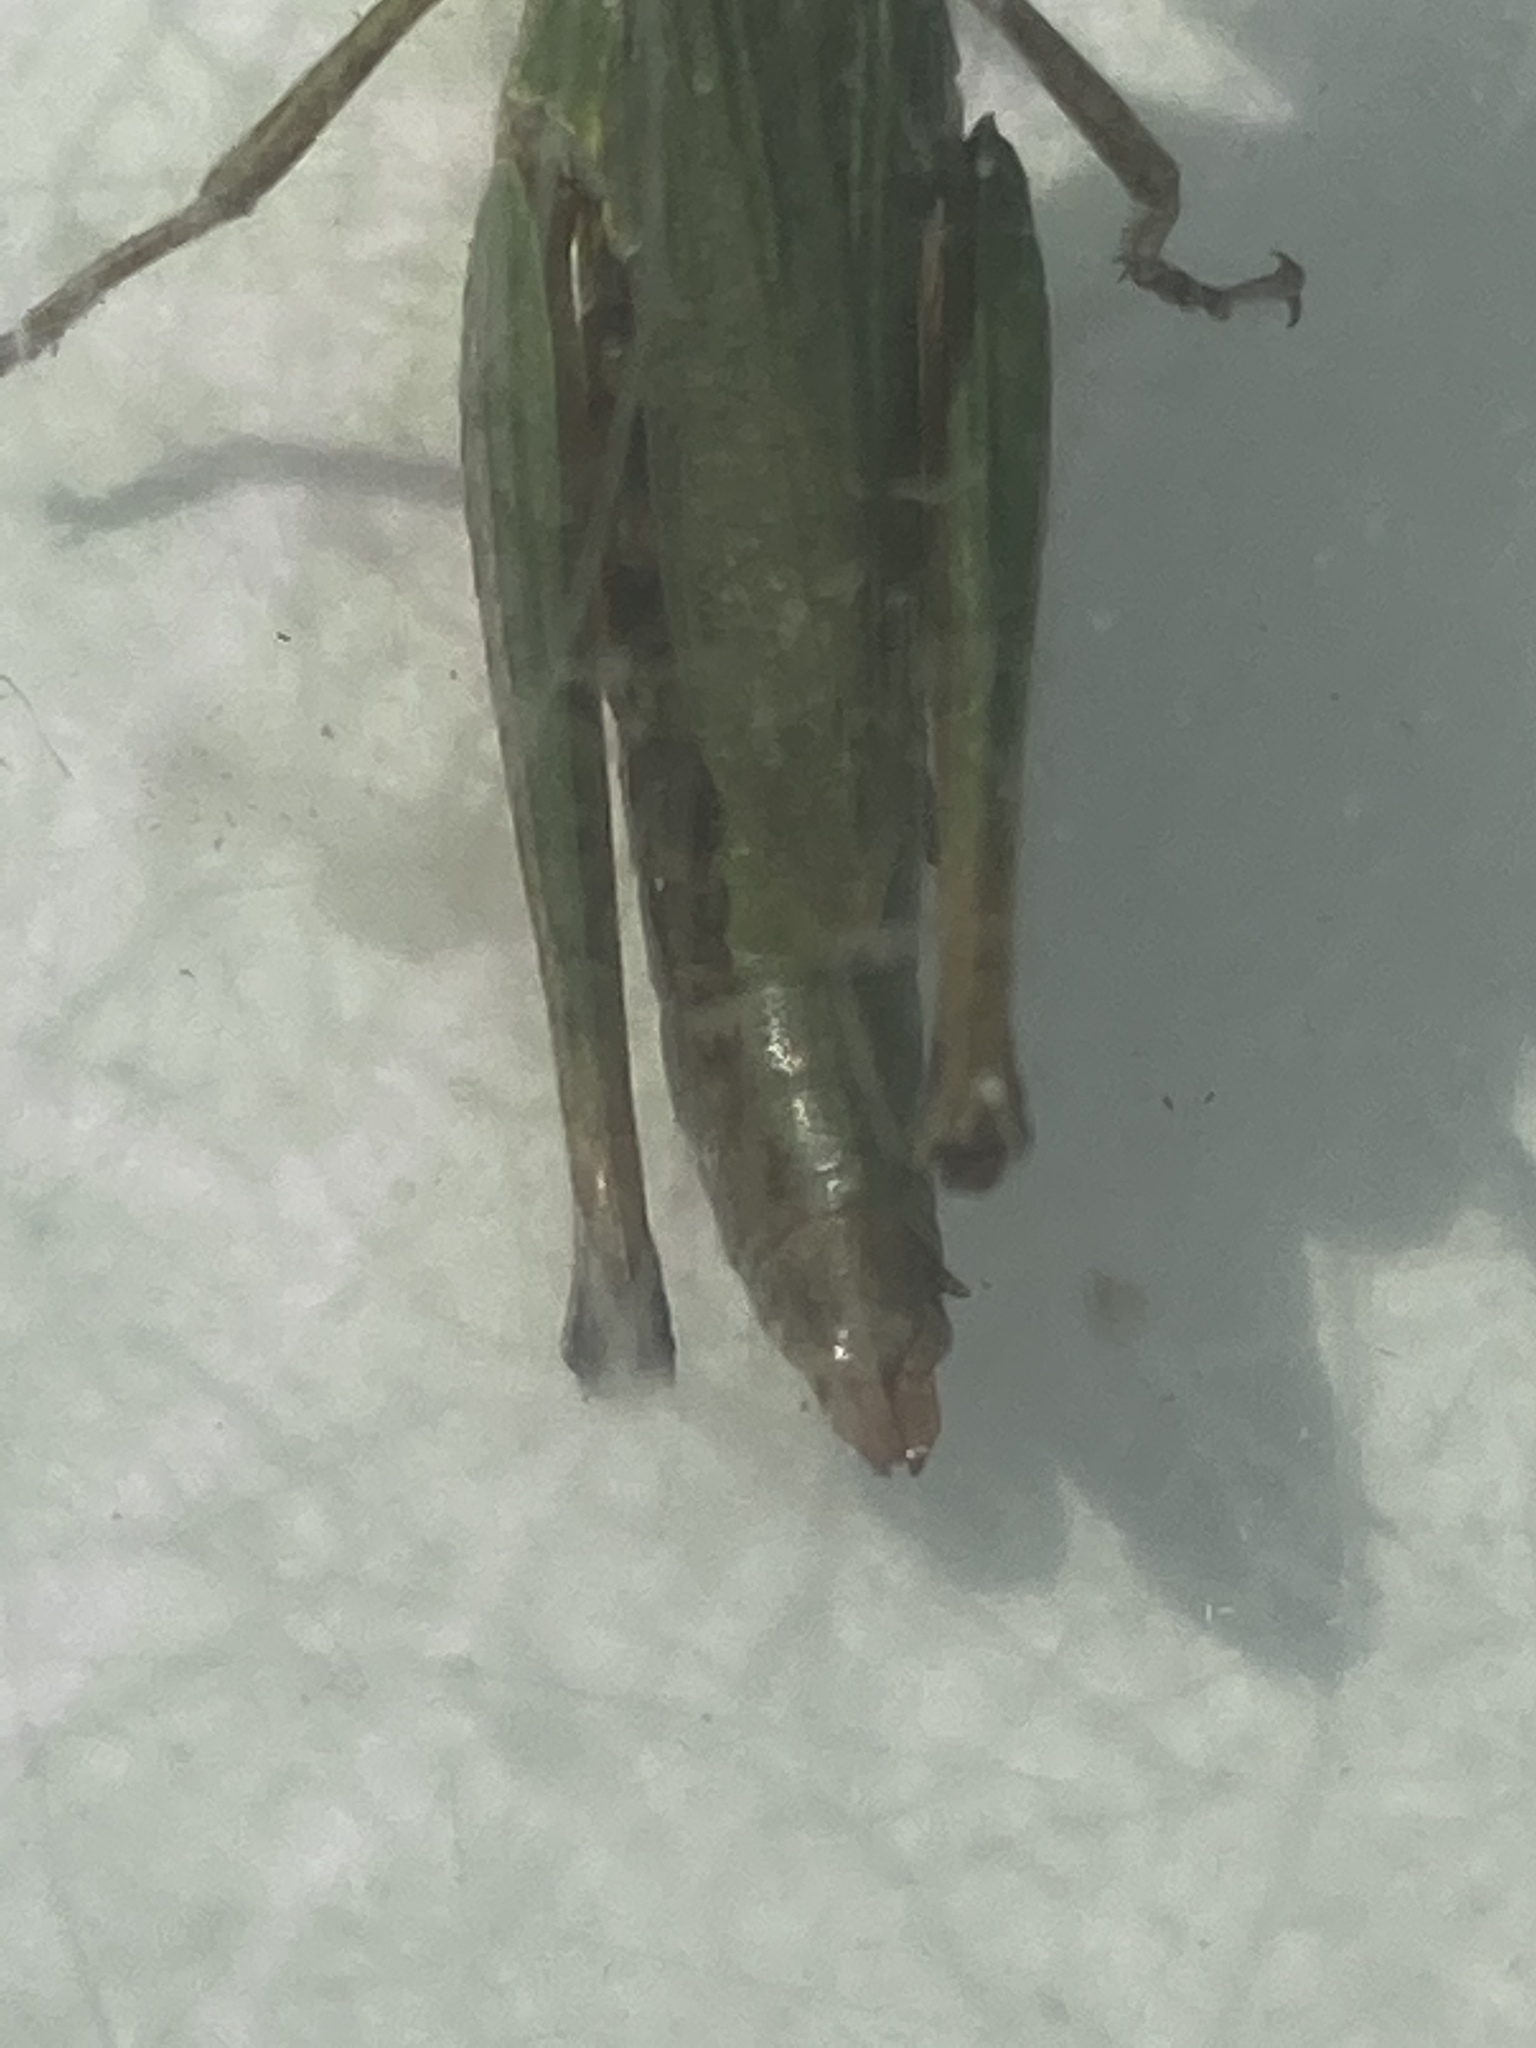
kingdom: Animalia
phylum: Arthropoda
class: Insecta
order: Orthoptera
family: Acrididae
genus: Pseudochorthippus
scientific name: Pseudochorthippus montanus
